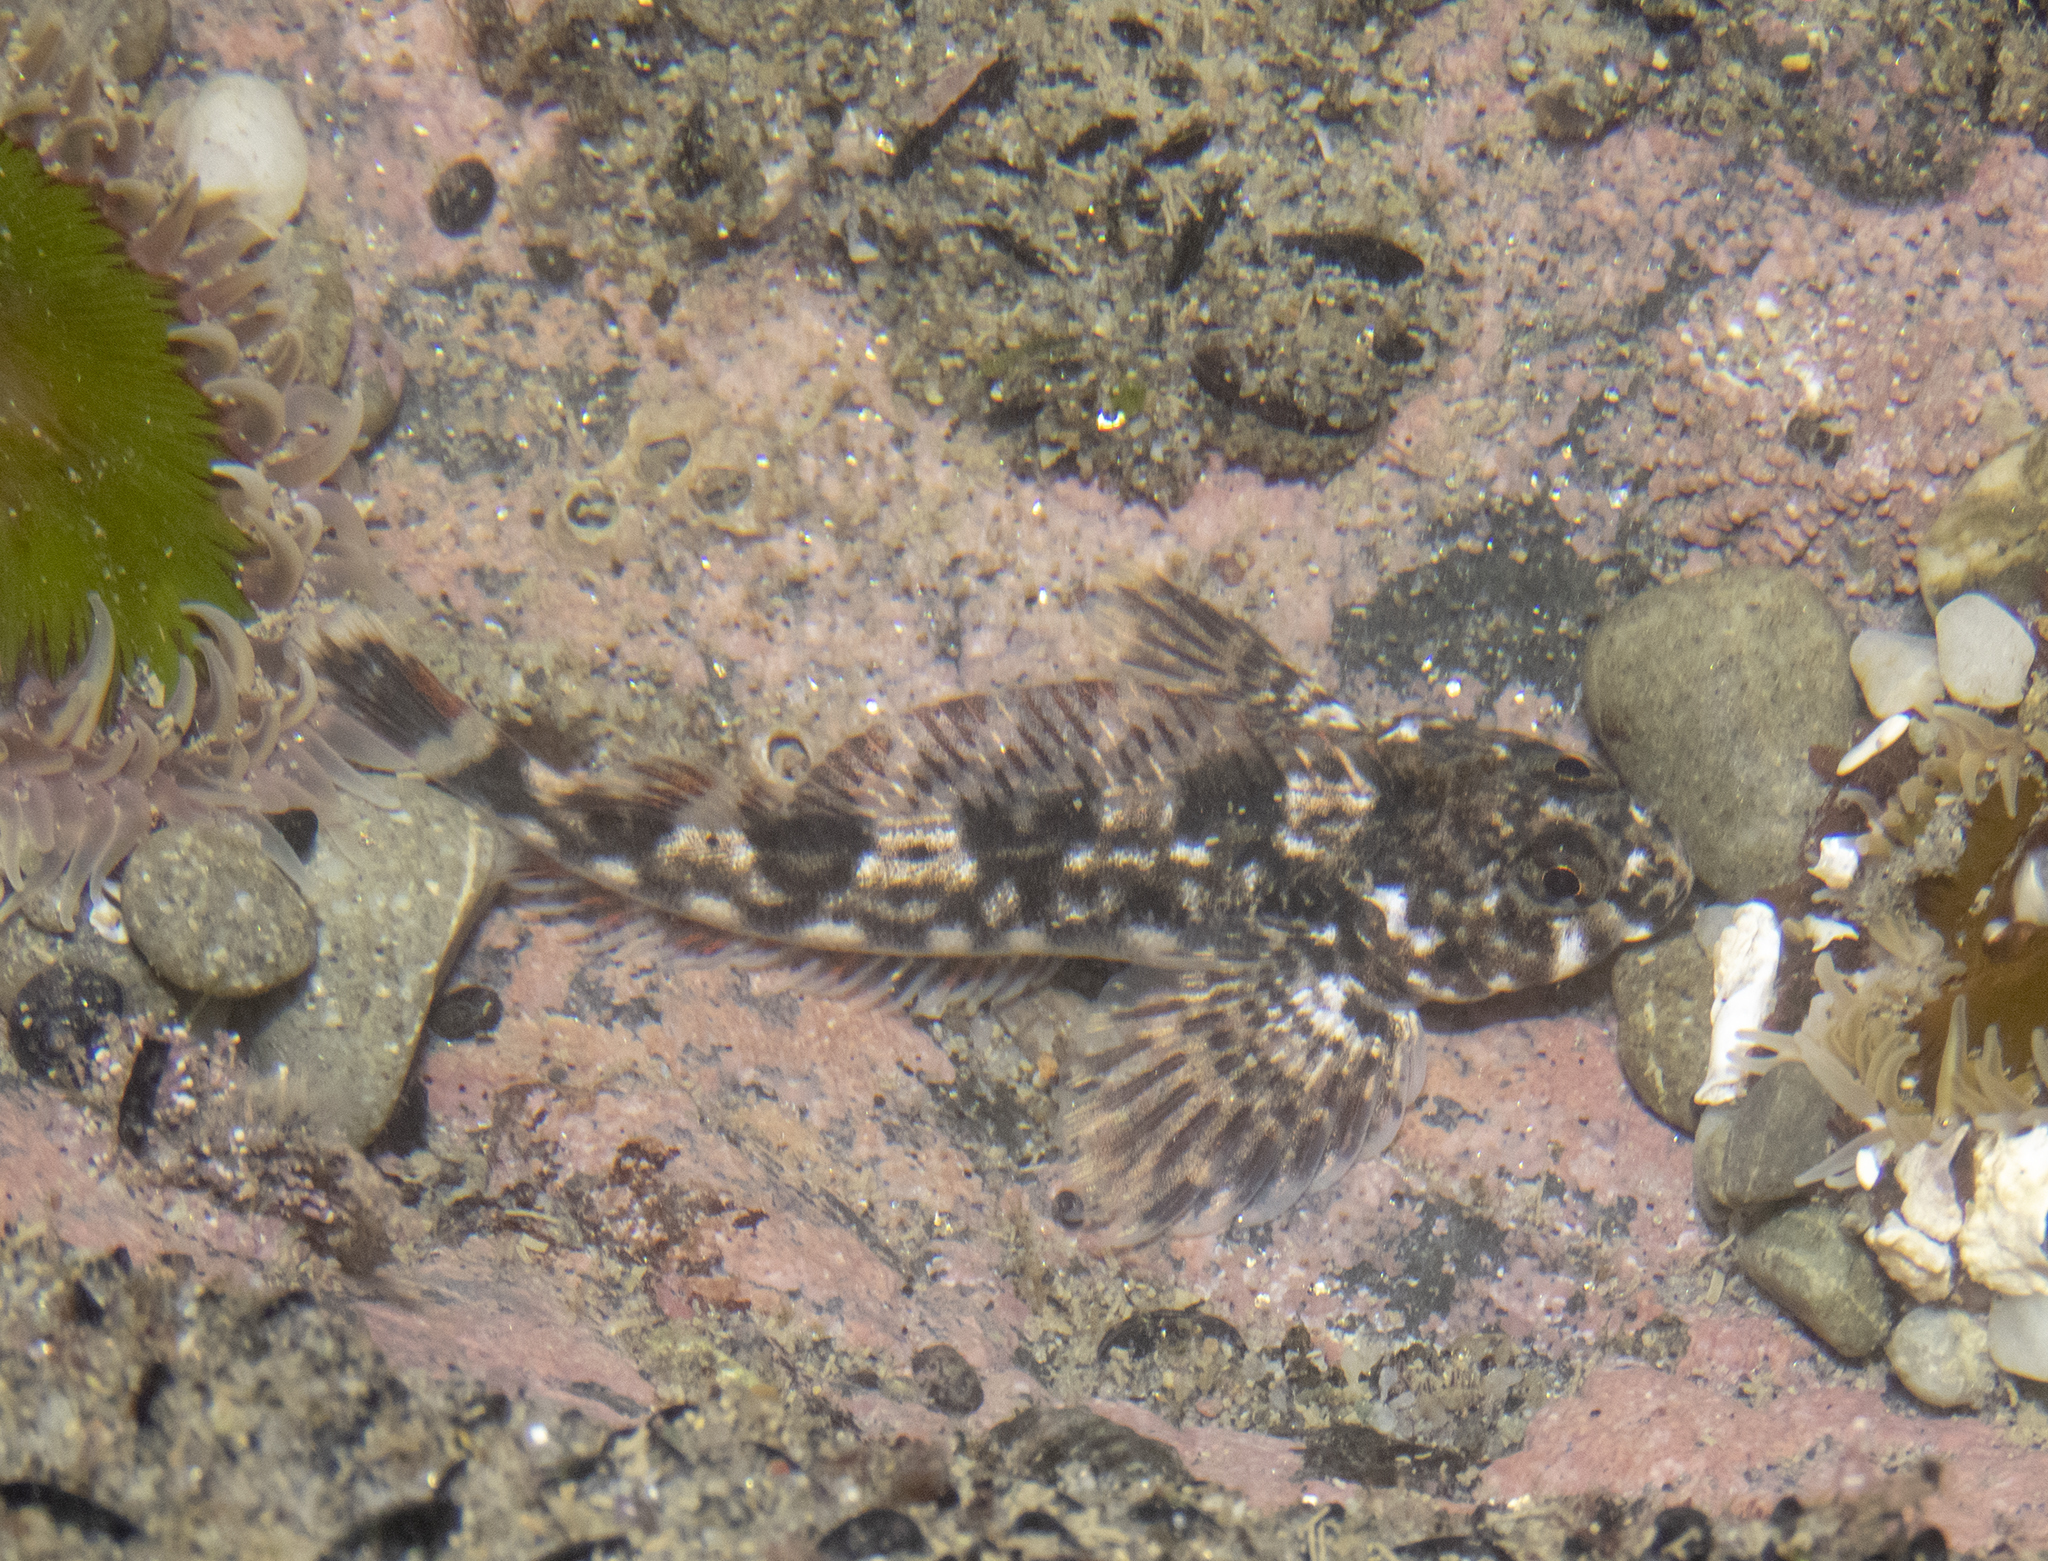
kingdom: Animalia
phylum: Chordata
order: Perciformes
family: Tripterygiidae
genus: Blennodon
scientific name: Blennodon dorsalis
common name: Giant triplefin
